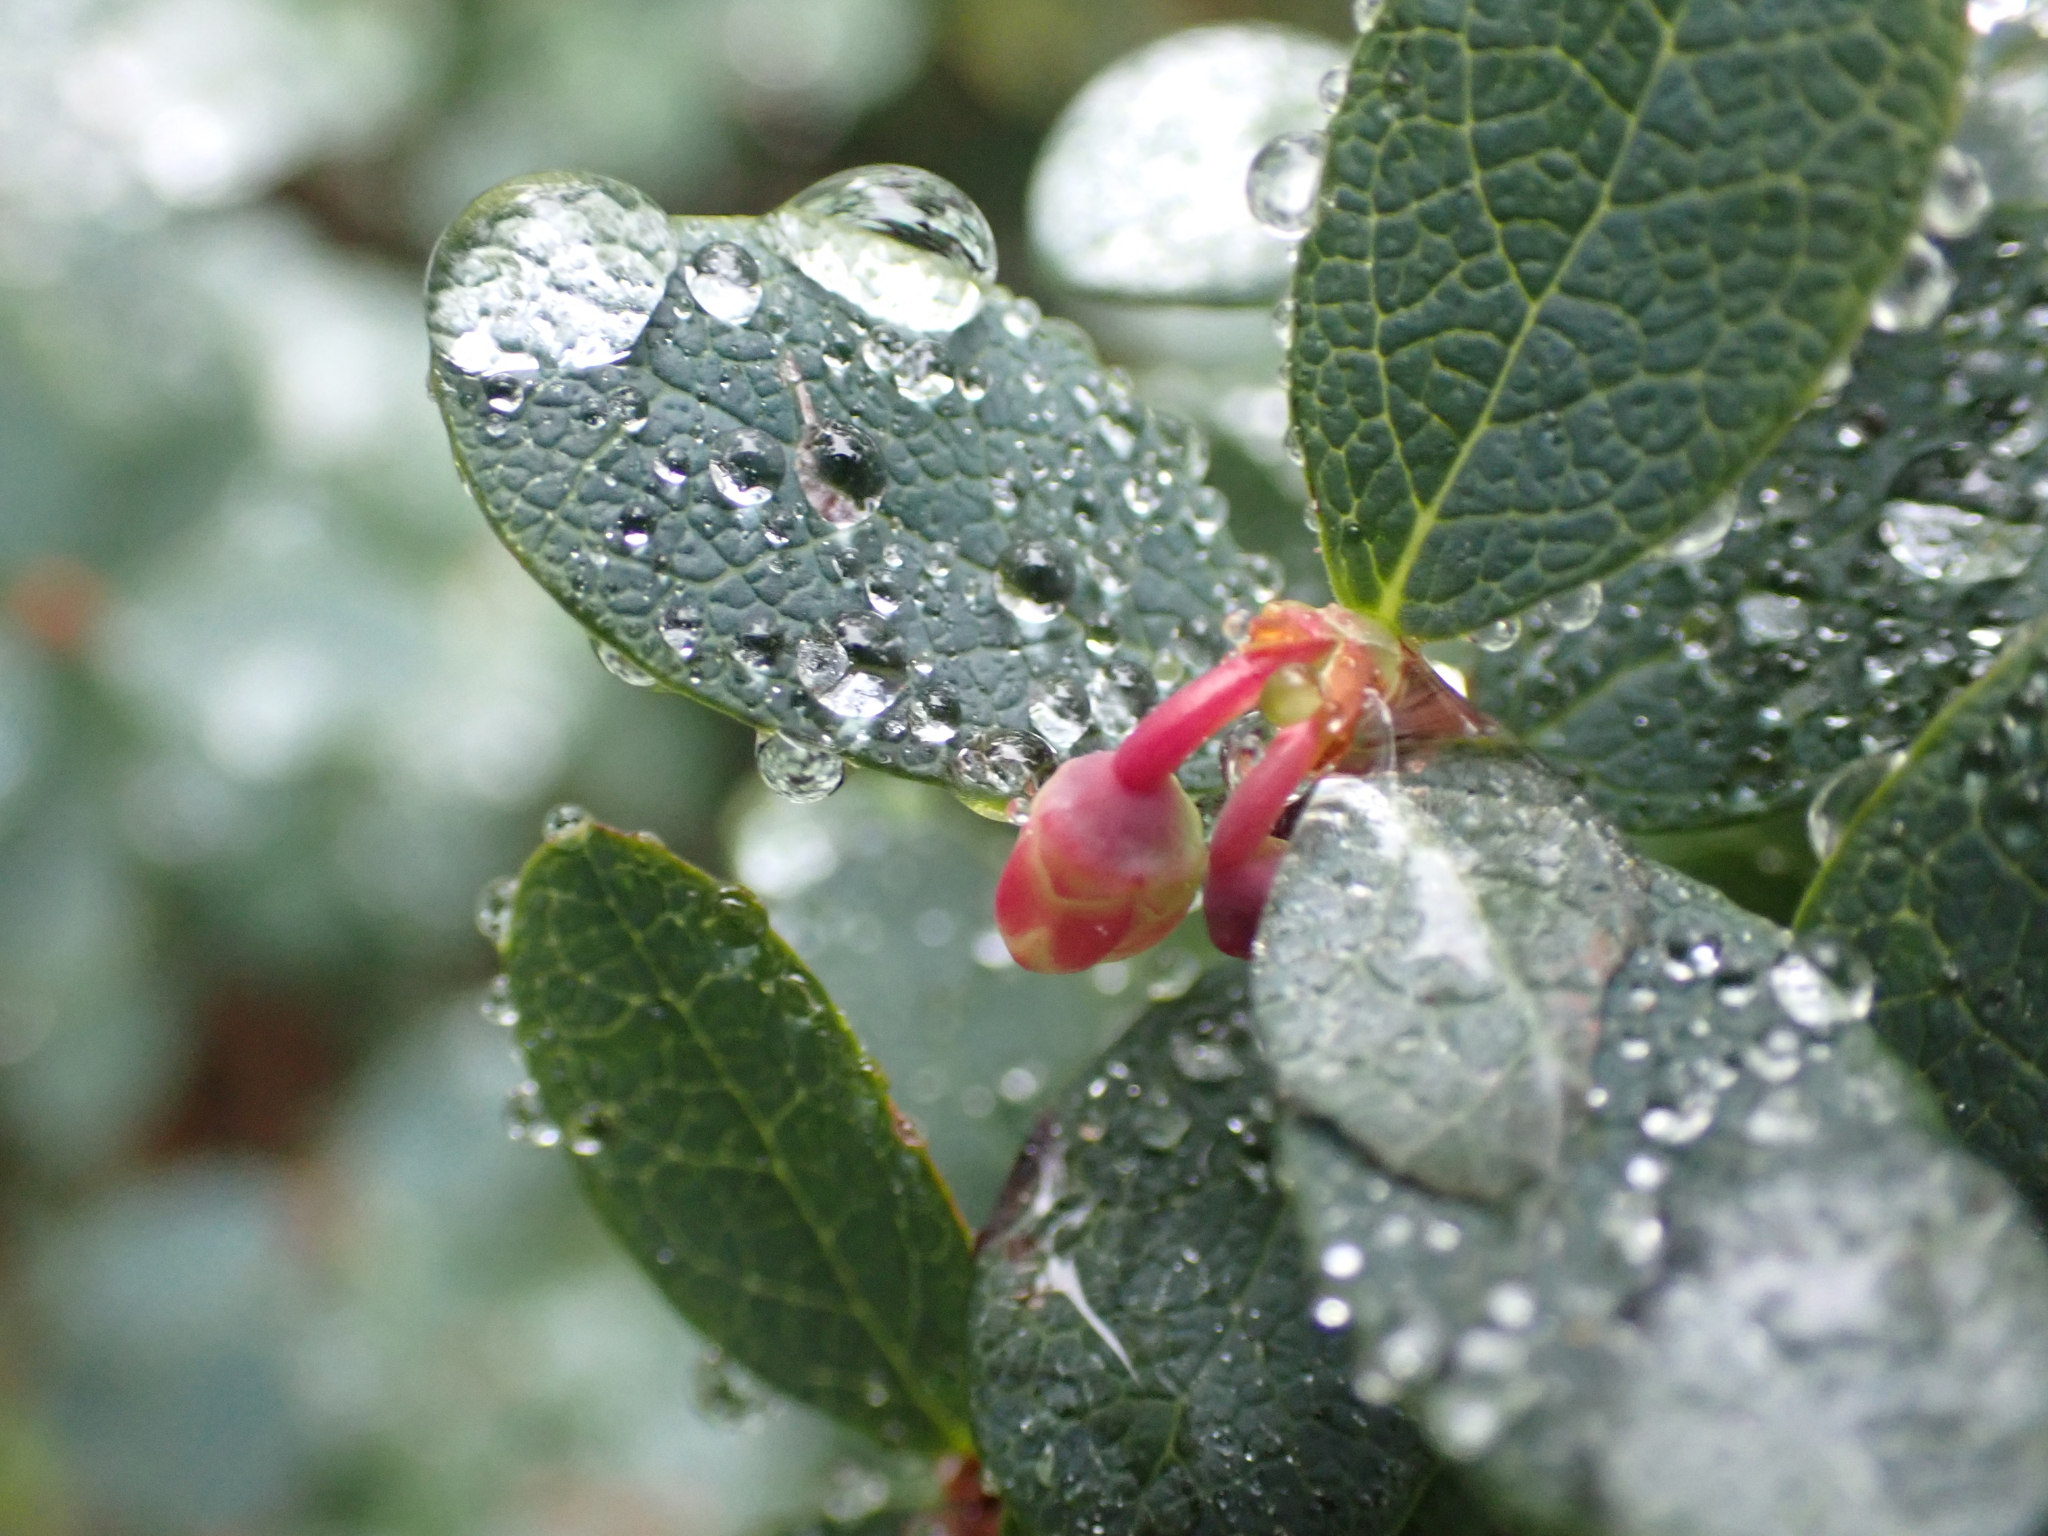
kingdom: Plantae
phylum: Tracheophyta
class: Magnoliopsida
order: Ericales
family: Ericaceae
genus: Vaccinium
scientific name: Vaccinium uliginosum
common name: Bog bilberry
